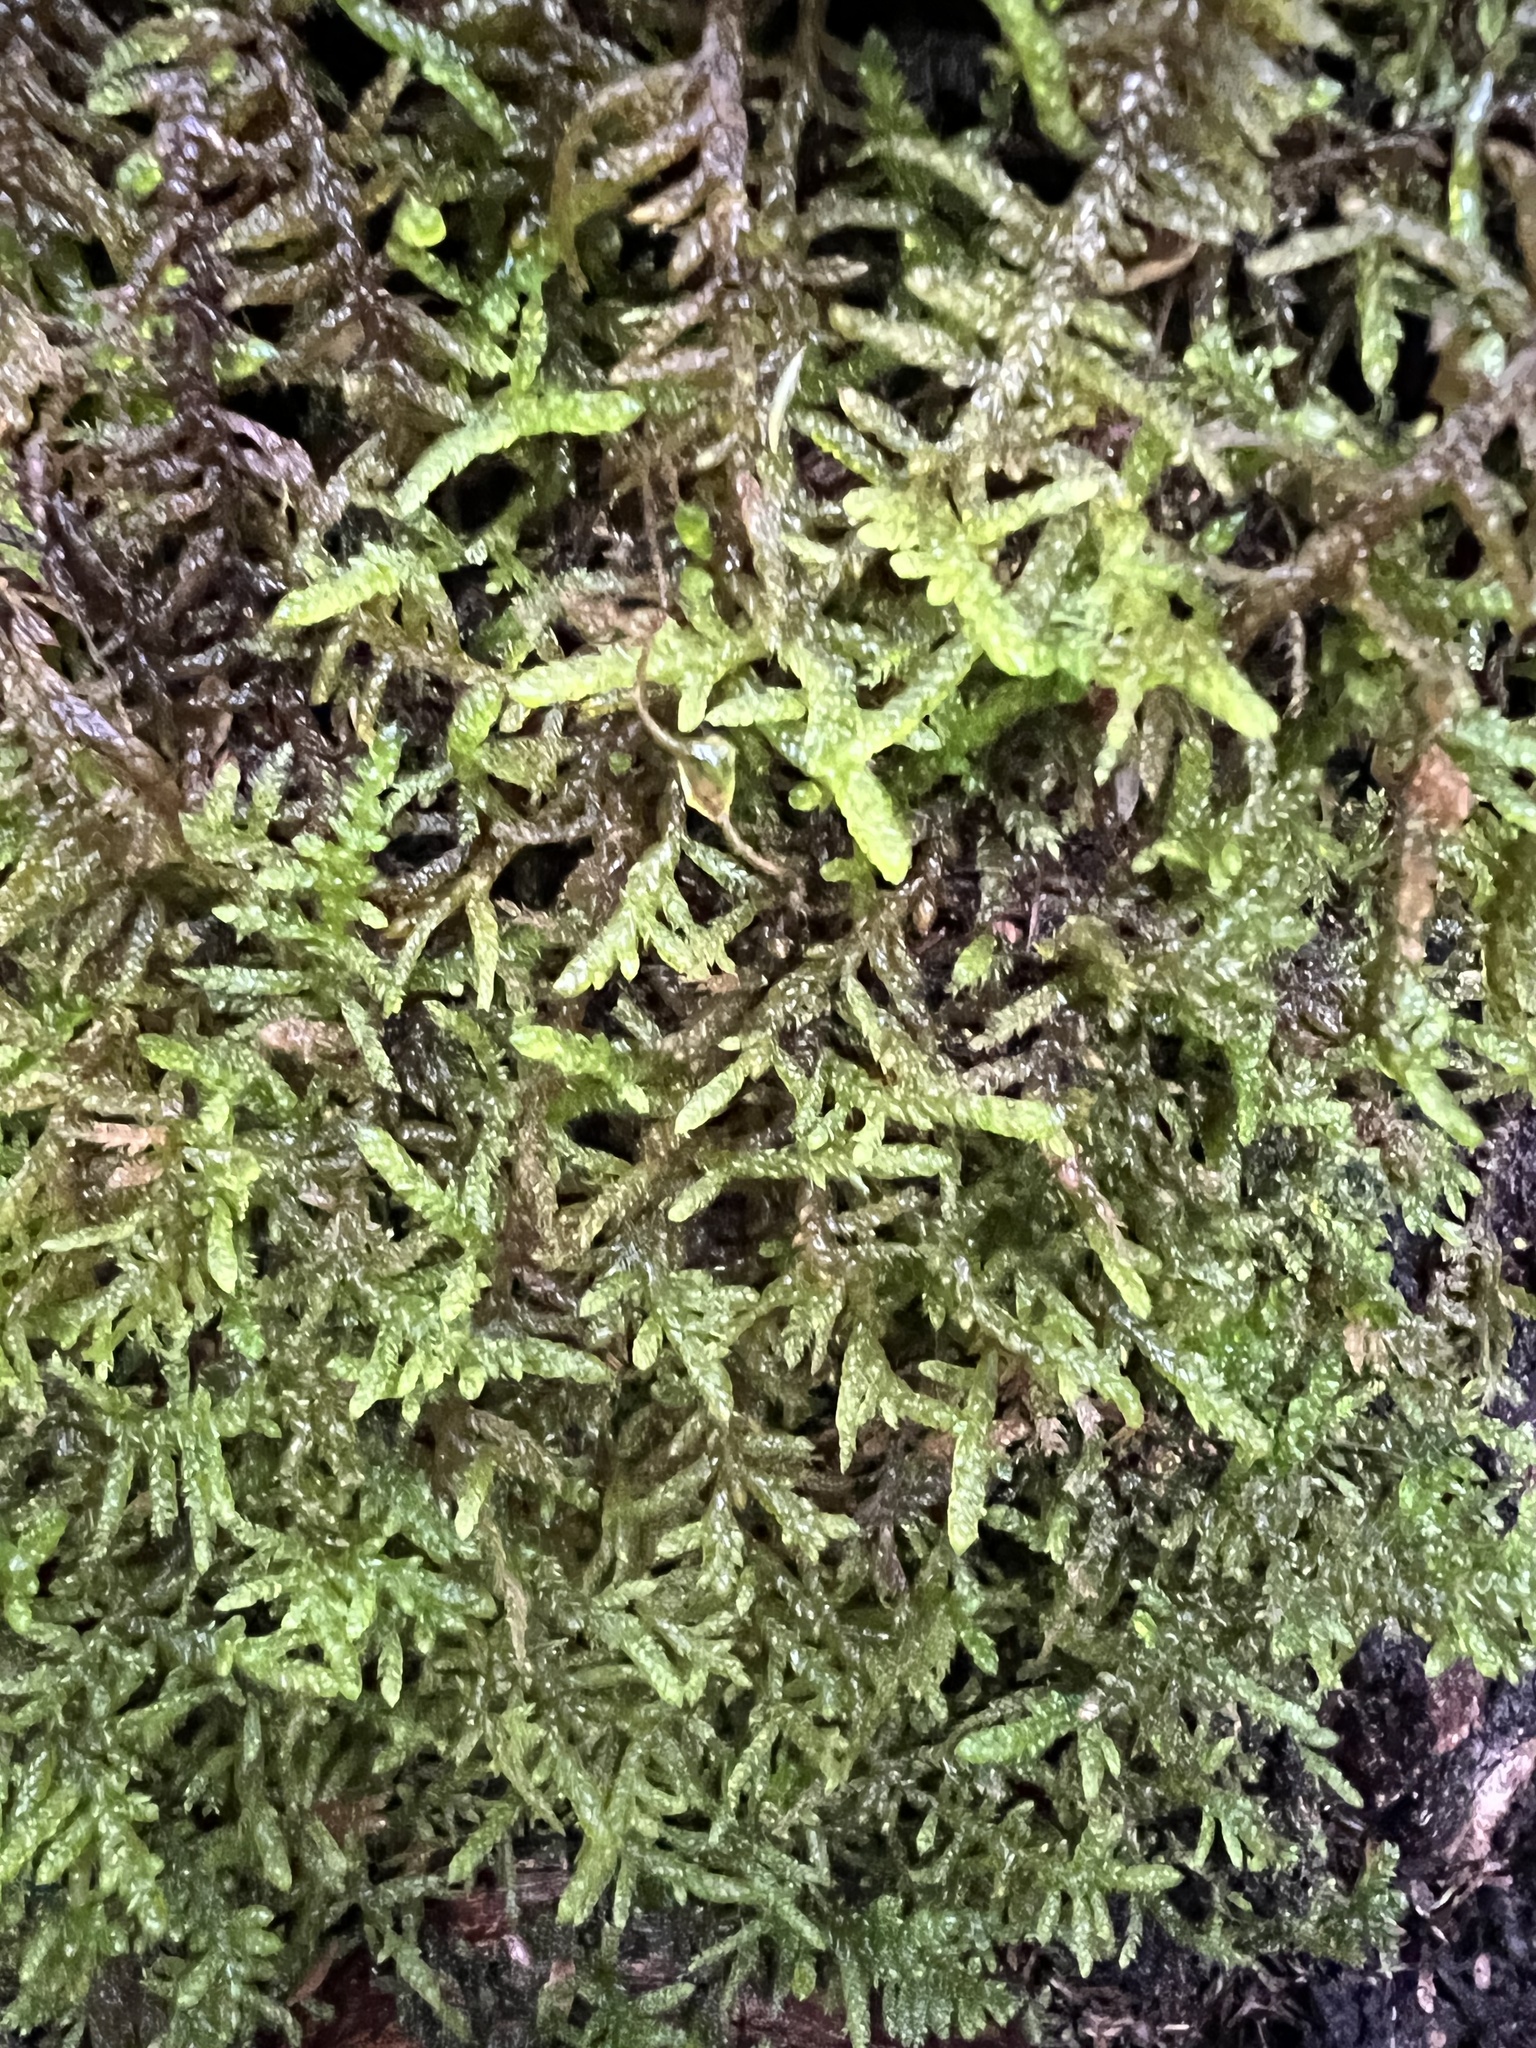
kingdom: Plantae
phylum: Bryophyta
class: Bryopsida
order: Hypnales
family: Brachytheciaceae
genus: Pseudoscleropodium
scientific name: Pseudoscleropodium purum
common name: Neat feather-moss
